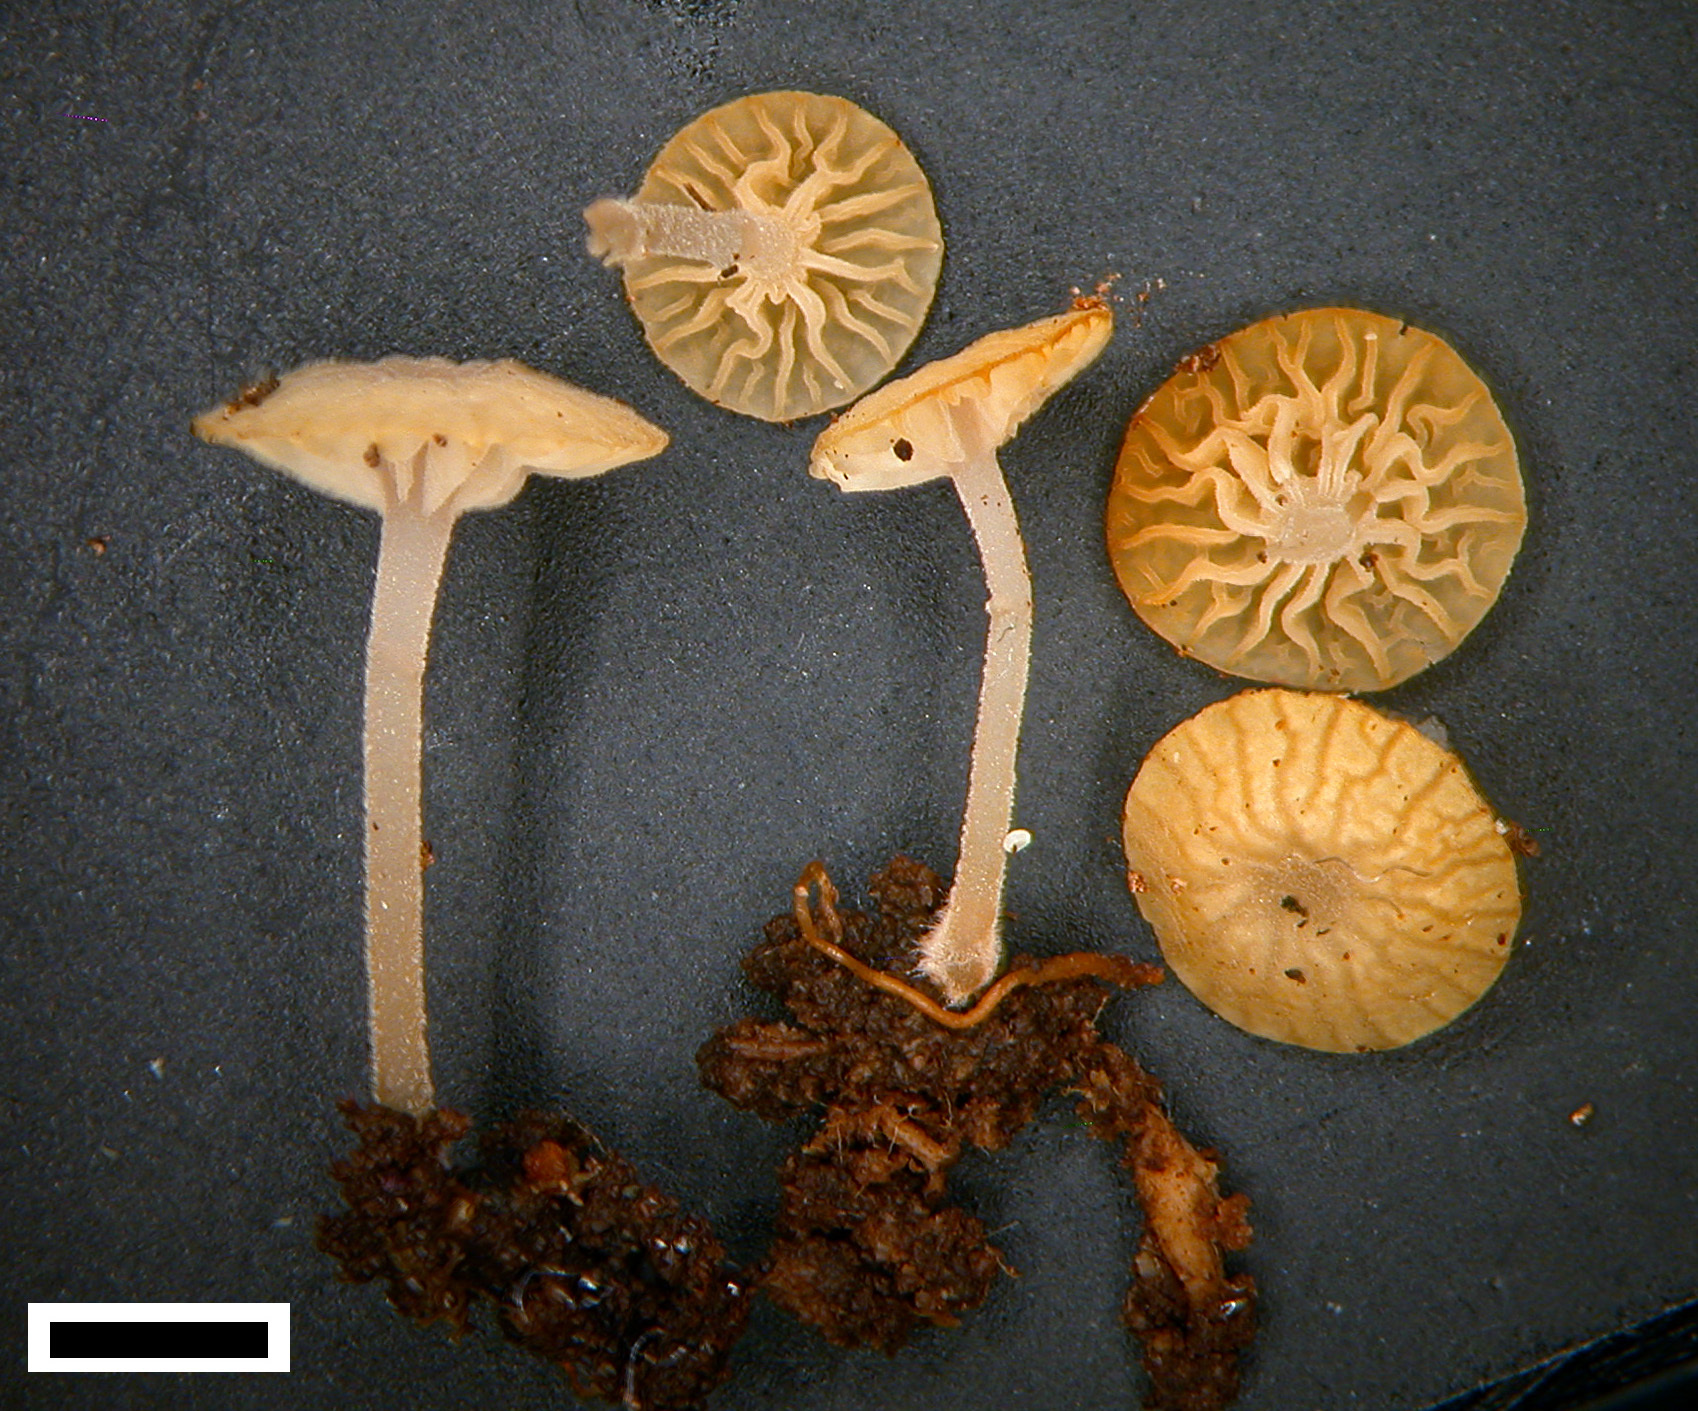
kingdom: Fungi
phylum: Basidiomycota
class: Agaricomycetes
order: Agaricales
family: Physalacriaceae
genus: Gloiocephala
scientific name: Gloiocephala gracilis
